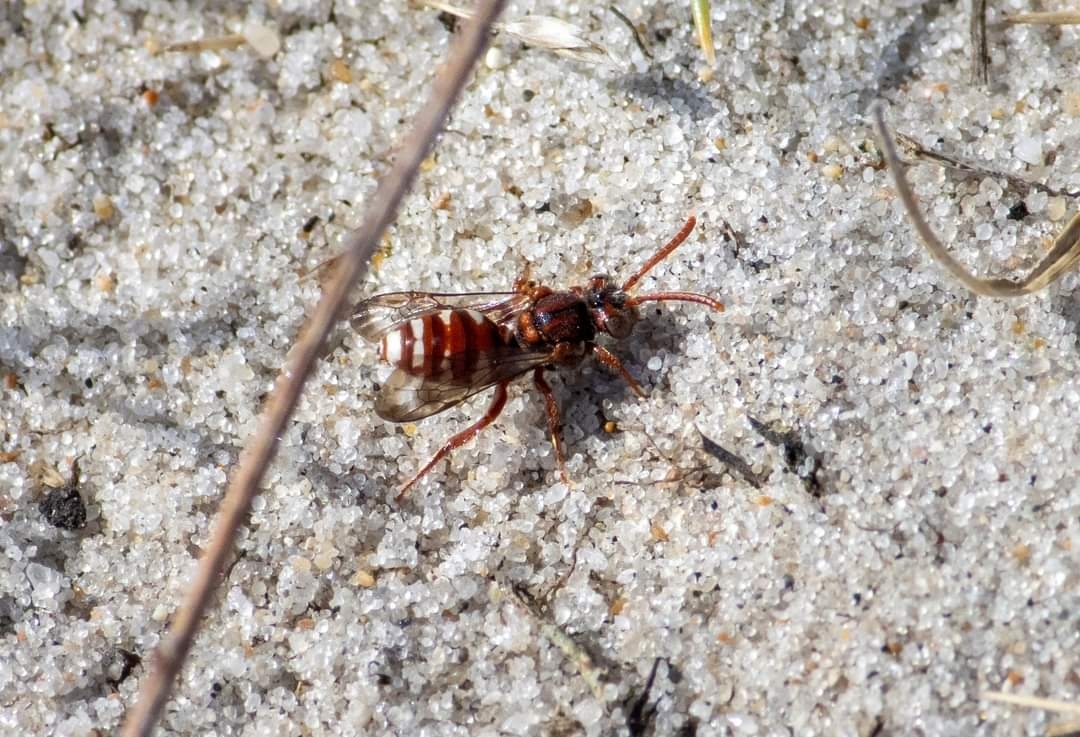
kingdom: Animalia
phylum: Arthropoda
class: Insecta
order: Hymenoptera
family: Apidae
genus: Nomada
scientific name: Nomada baccata
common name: Bear-clawed nomad bee
